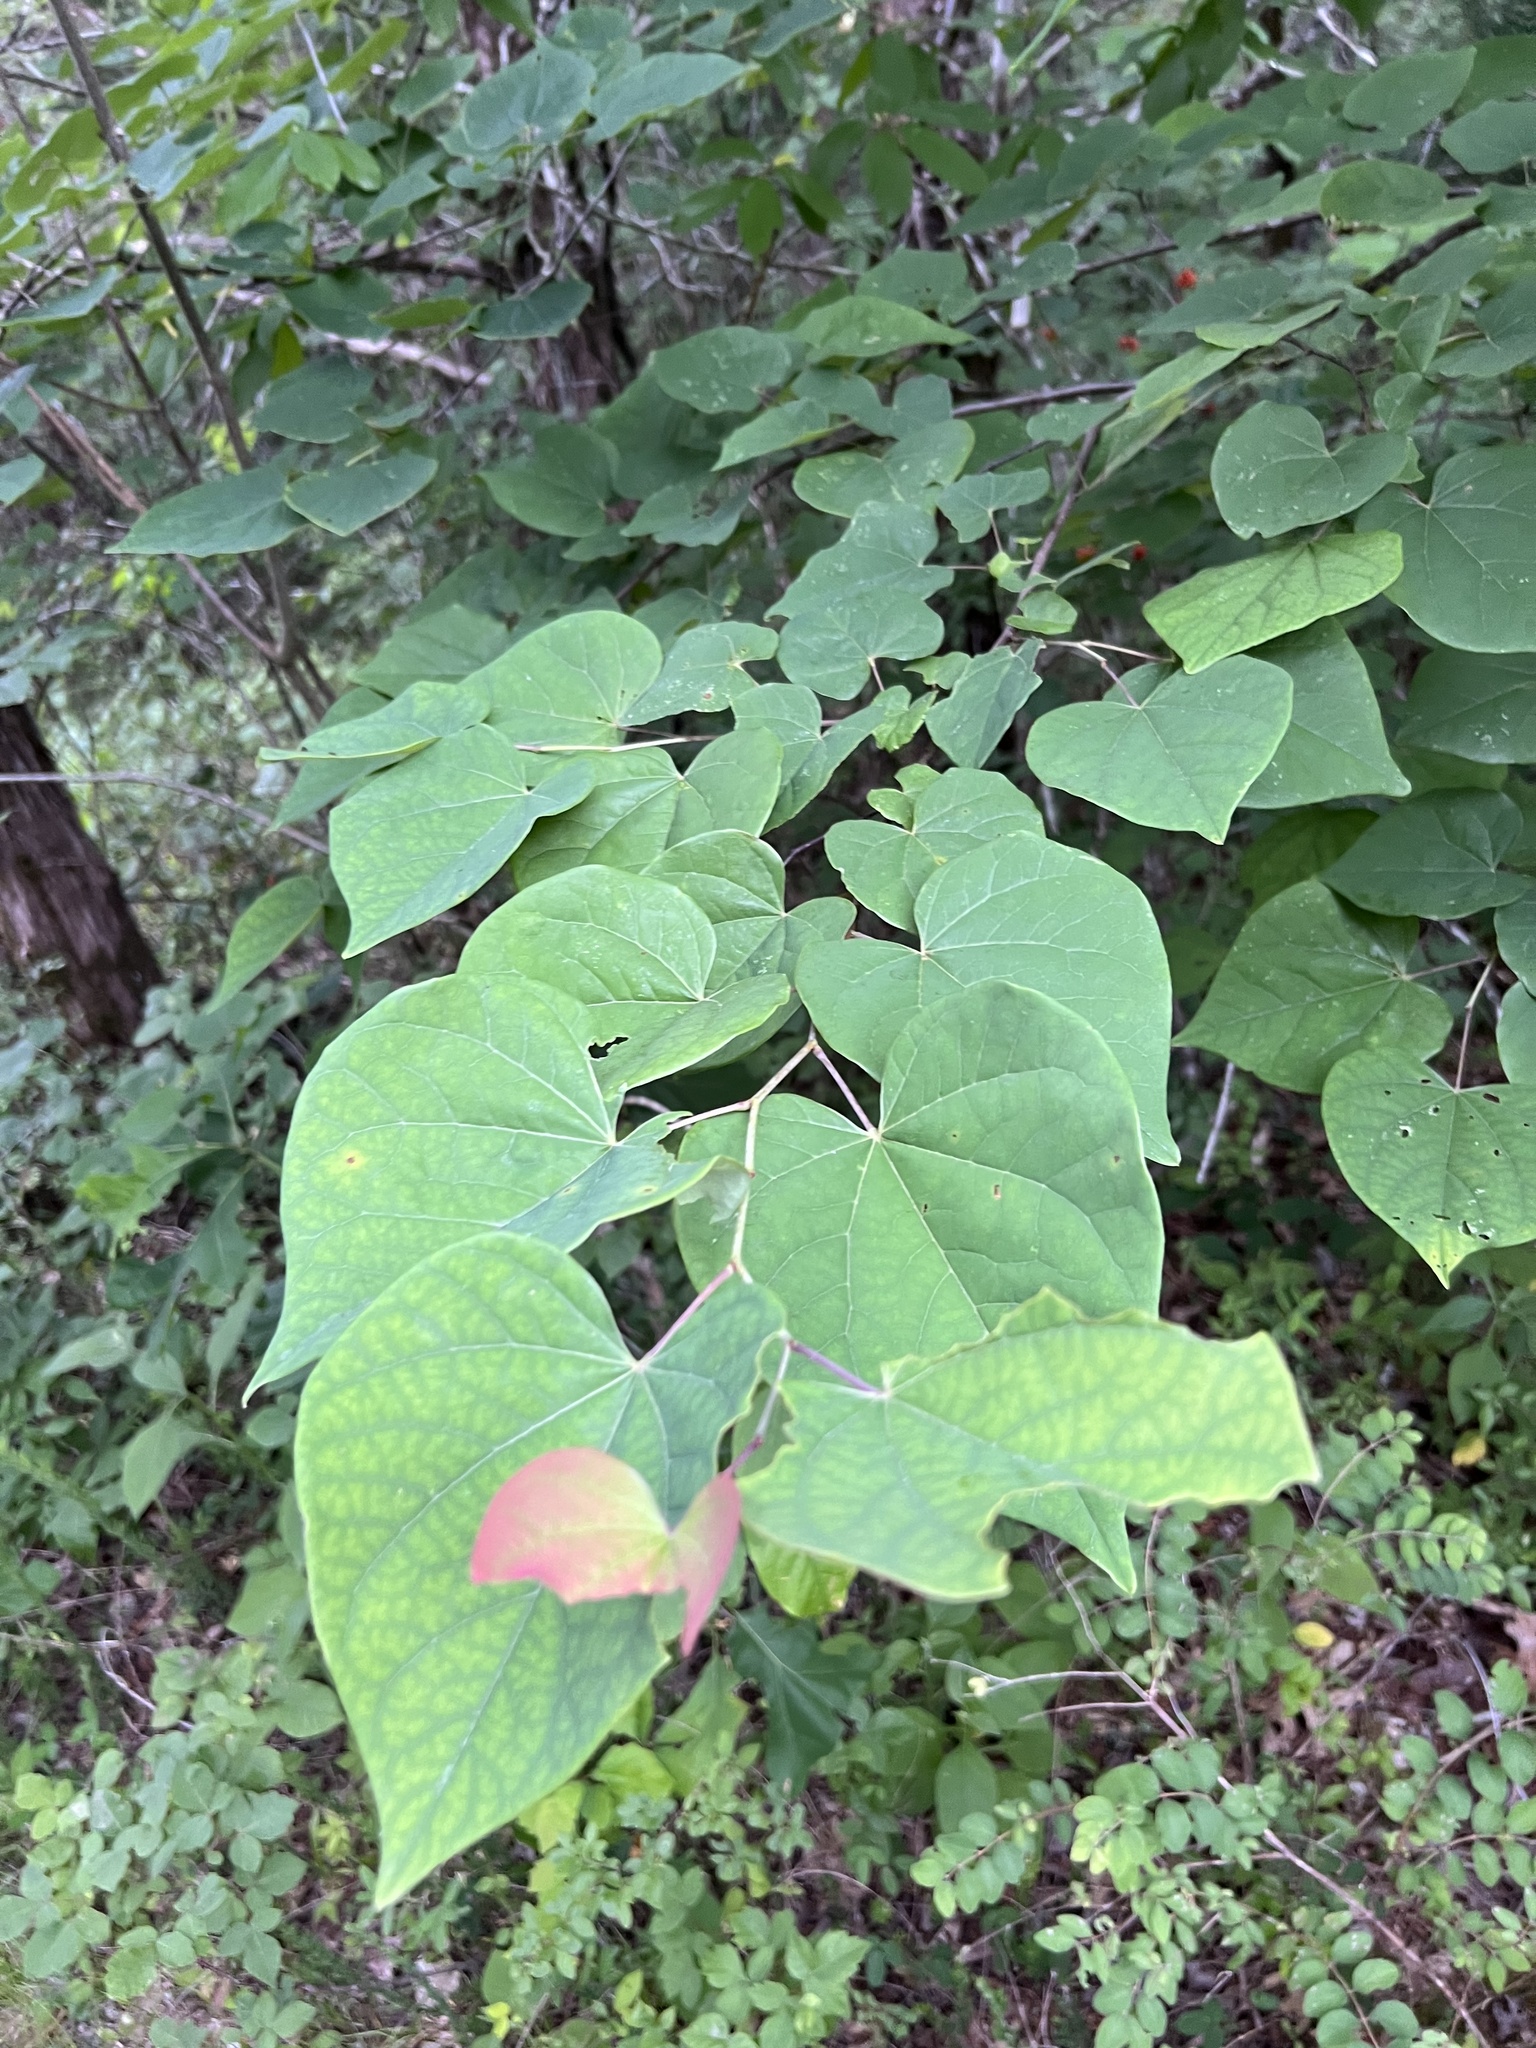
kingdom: Plantae
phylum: Tracheophyta
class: Magnoliopsida
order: Fabales
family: Fabaceae
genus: Cercis
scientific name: Cercis canadensis
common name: Eastern redbud
